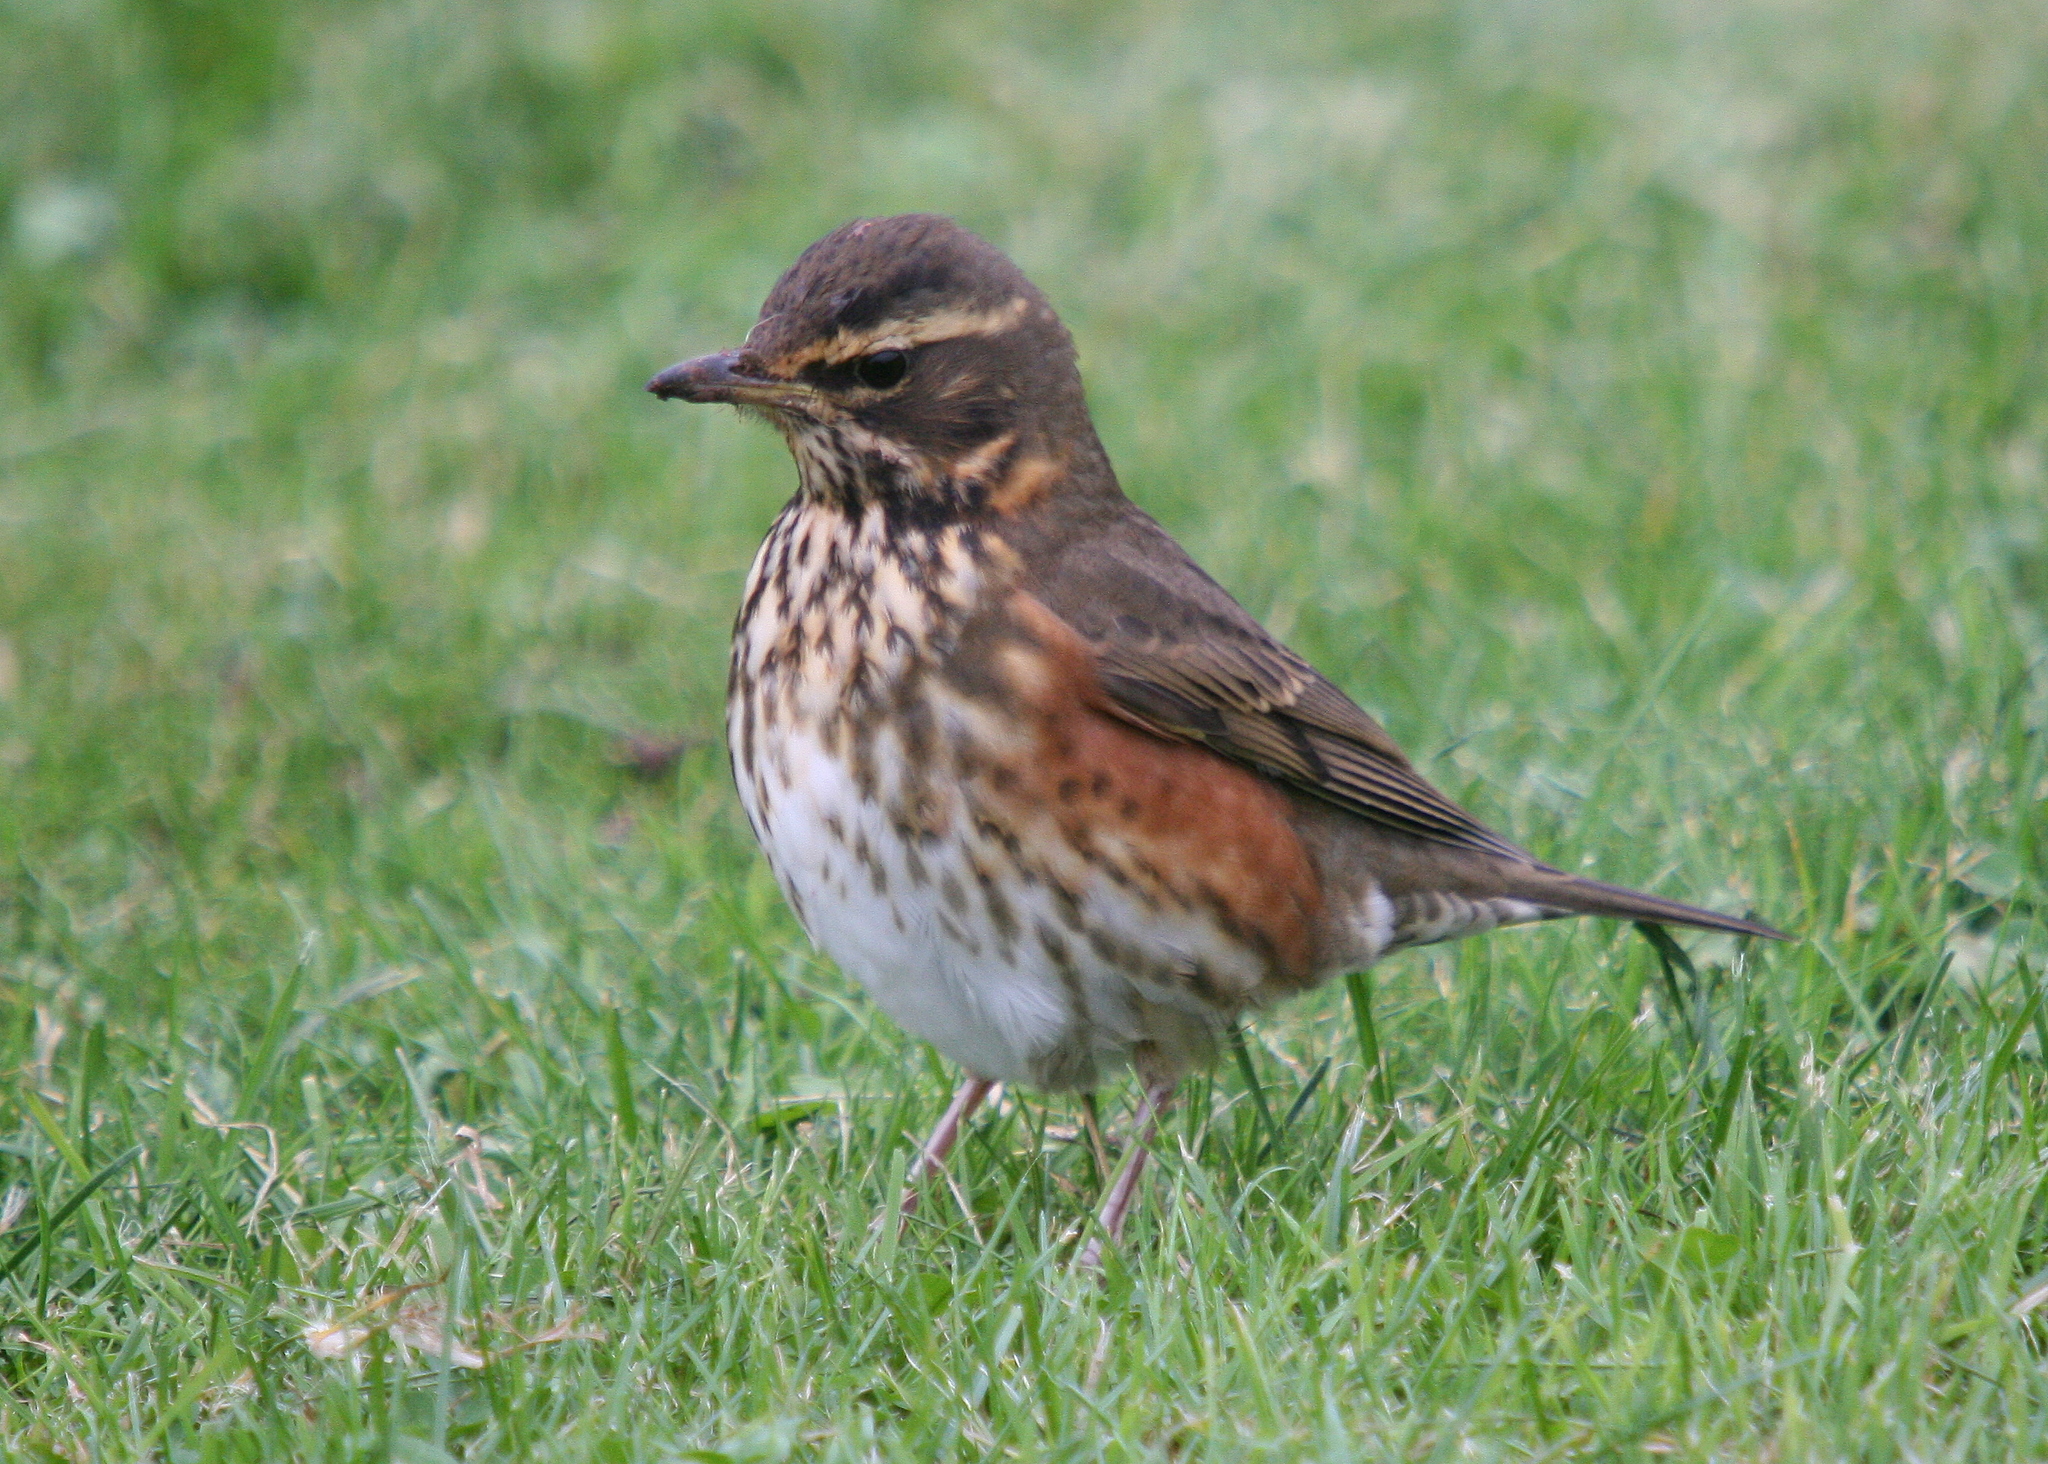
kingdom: Animalia
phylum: Chordata
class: Aves
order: Passeriformes
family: Turdidae
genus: Turdus
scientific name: Turdus iliacus
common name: Redwing
